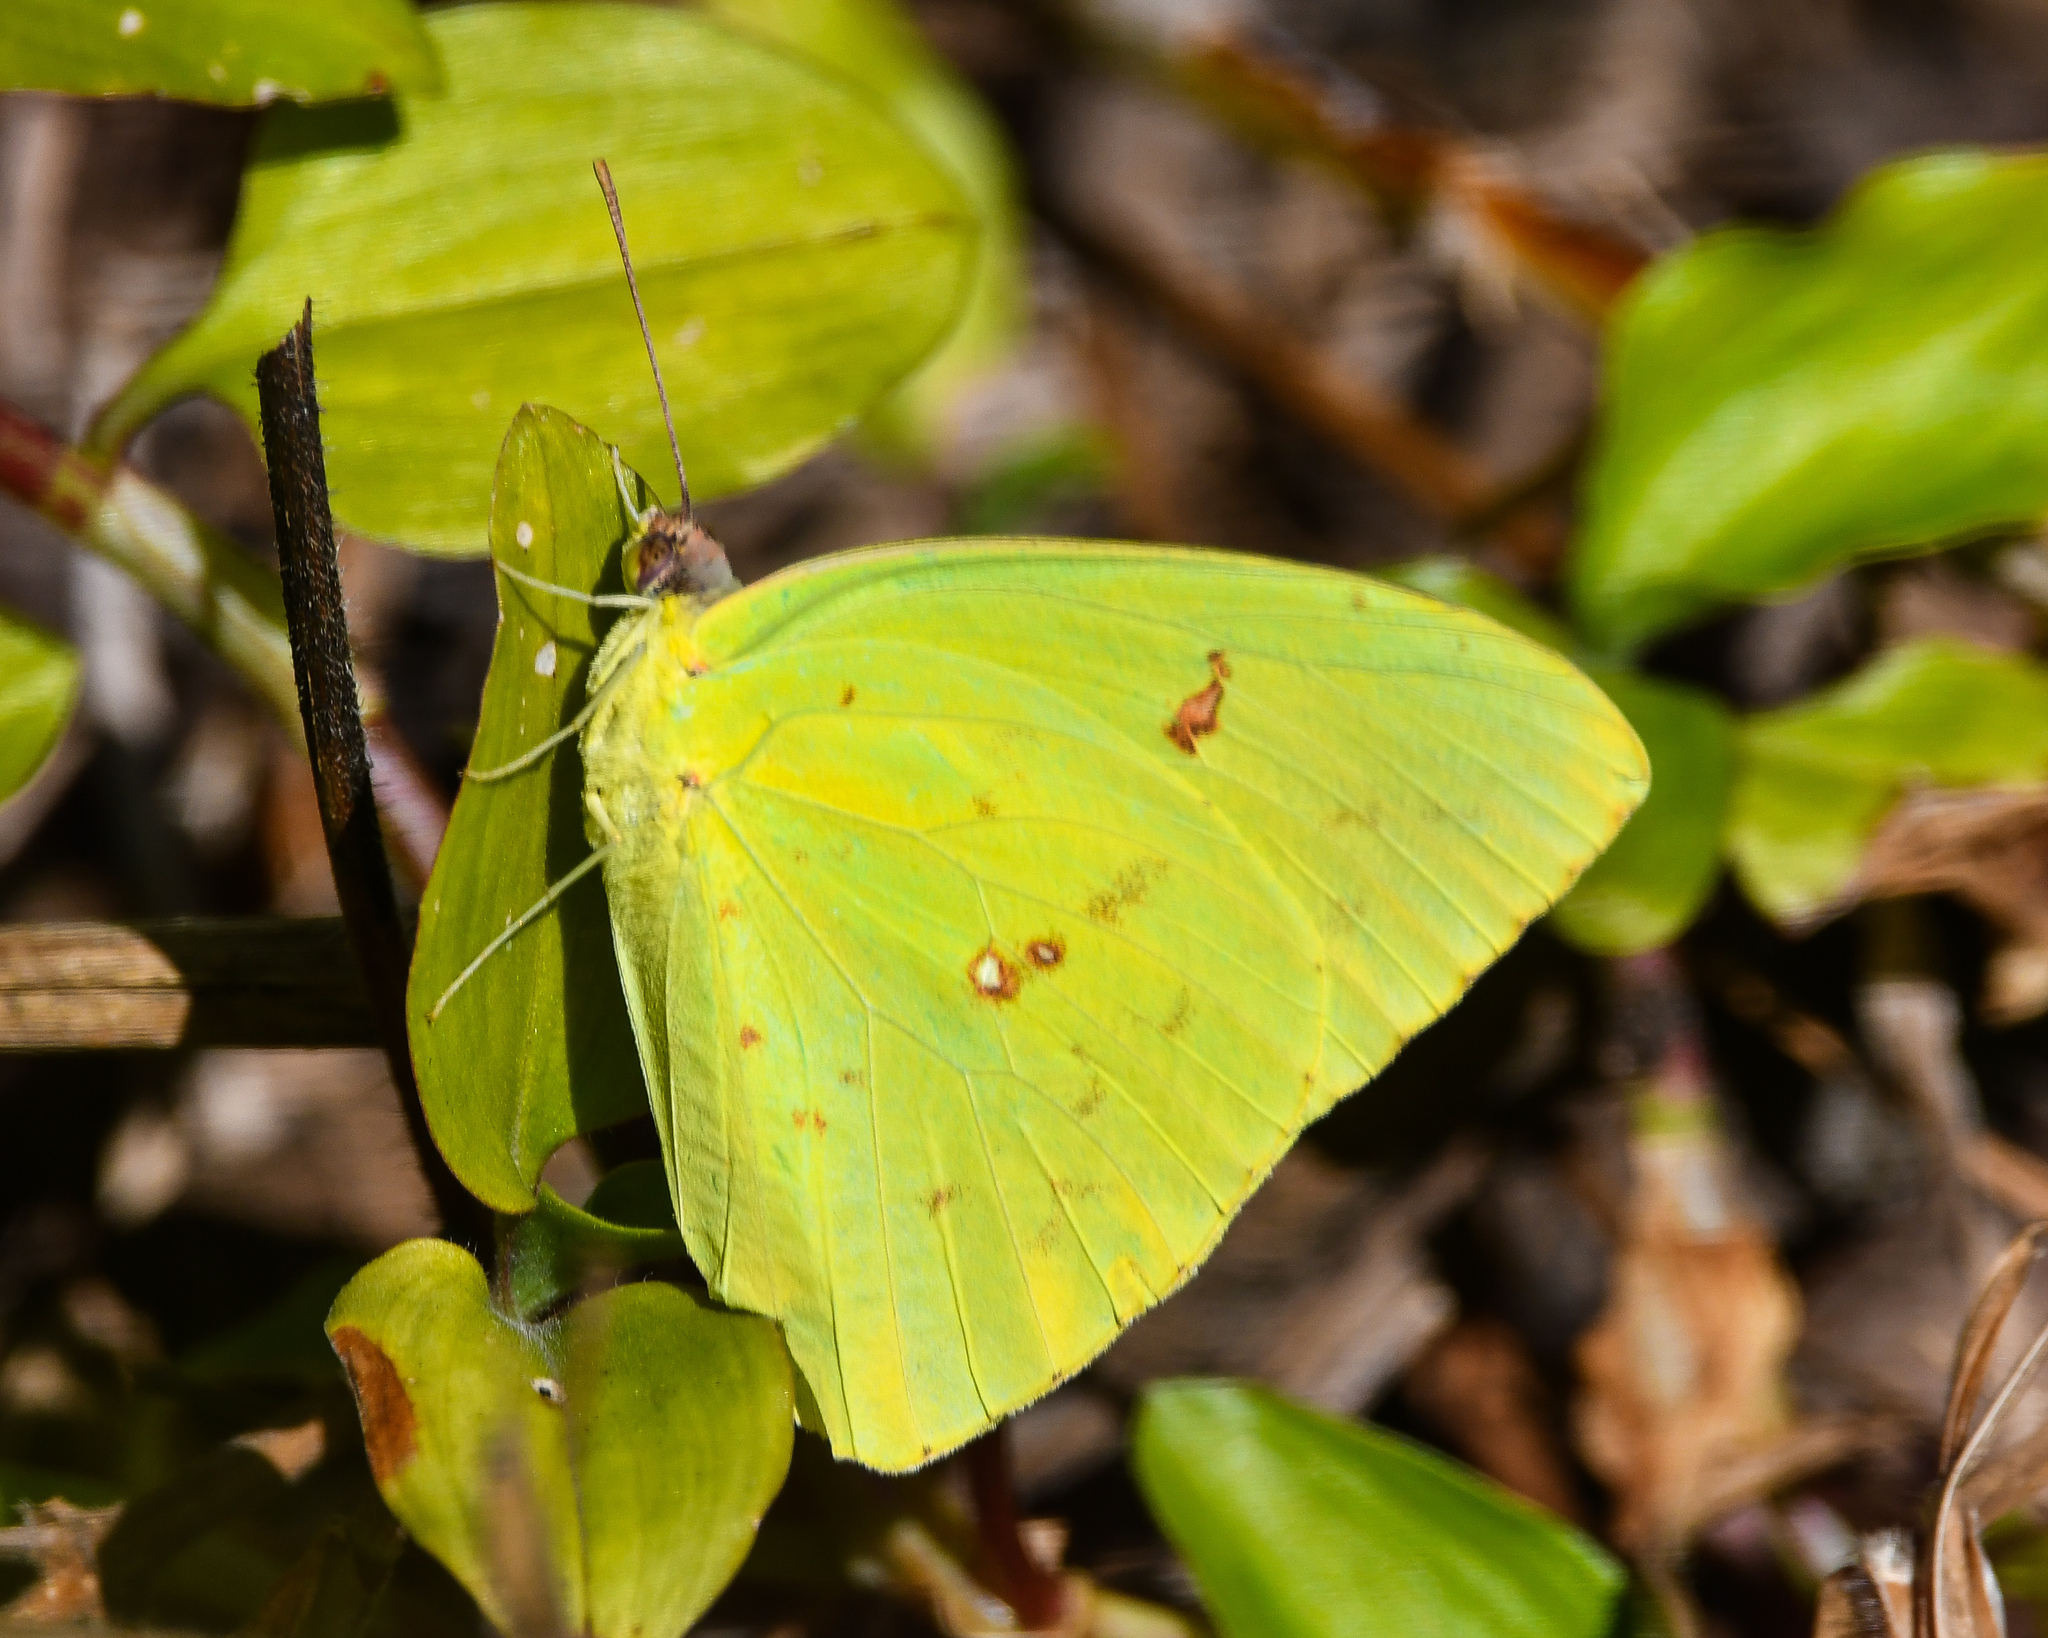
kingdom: Animalia
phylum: Arthropoda
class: Insecta
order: Lepidoptera
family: Pieridae
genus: Phoebis
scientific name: Phoebis sennae
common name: Cloudless sulphur
